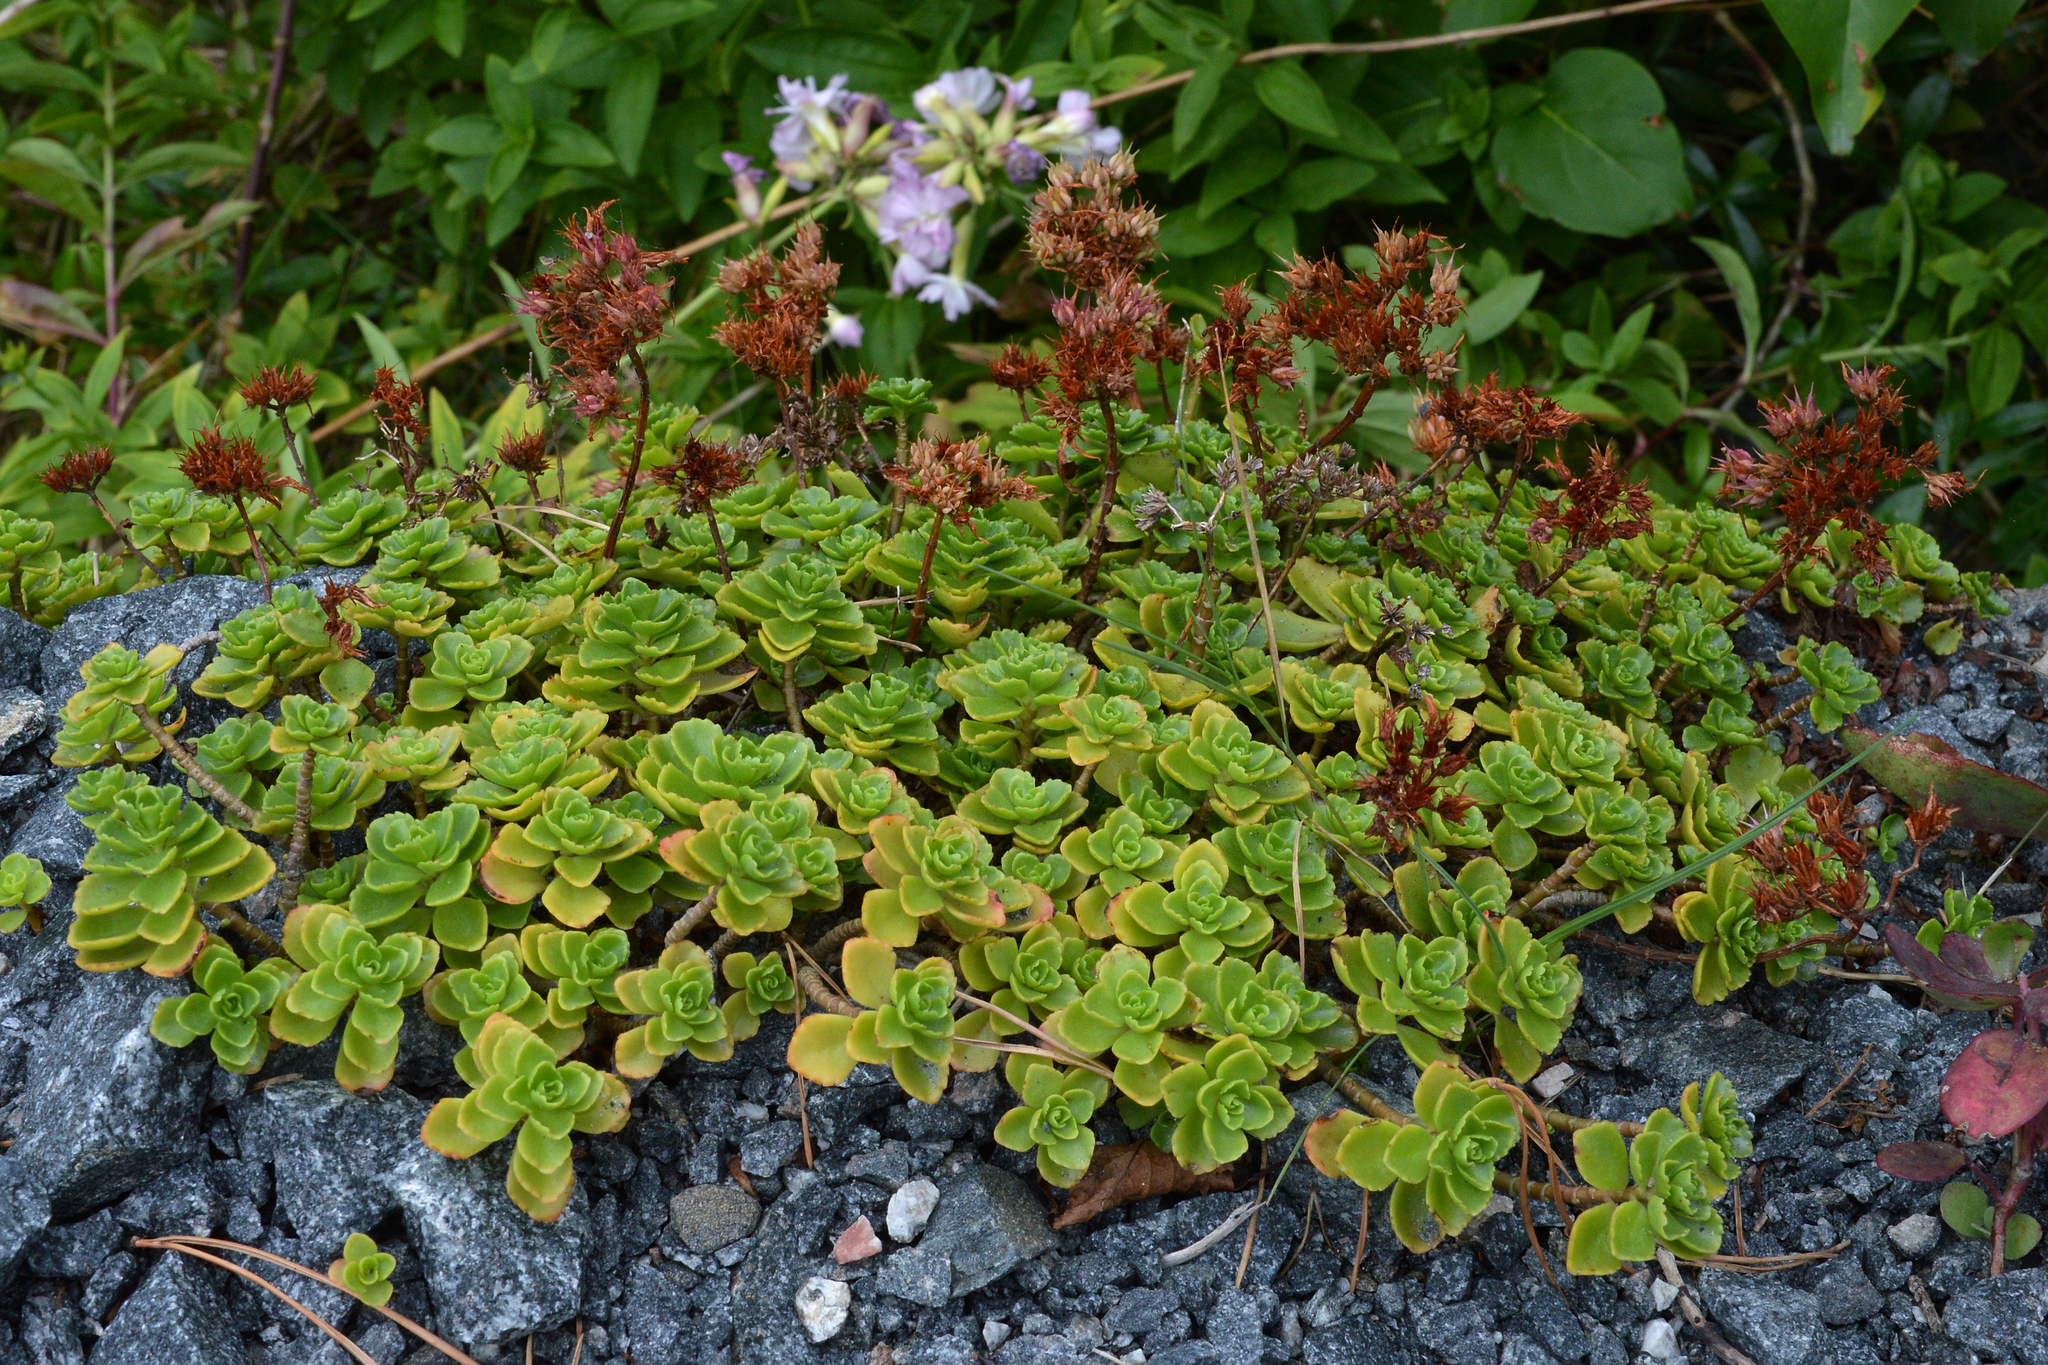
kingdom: Plantae
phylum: Tracheophyta
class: Magnoliopsida
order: Saxifragales
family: Crassulaceae
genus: Phedimus
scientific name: Phedimus spurius
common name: Caucasian stonecrop
